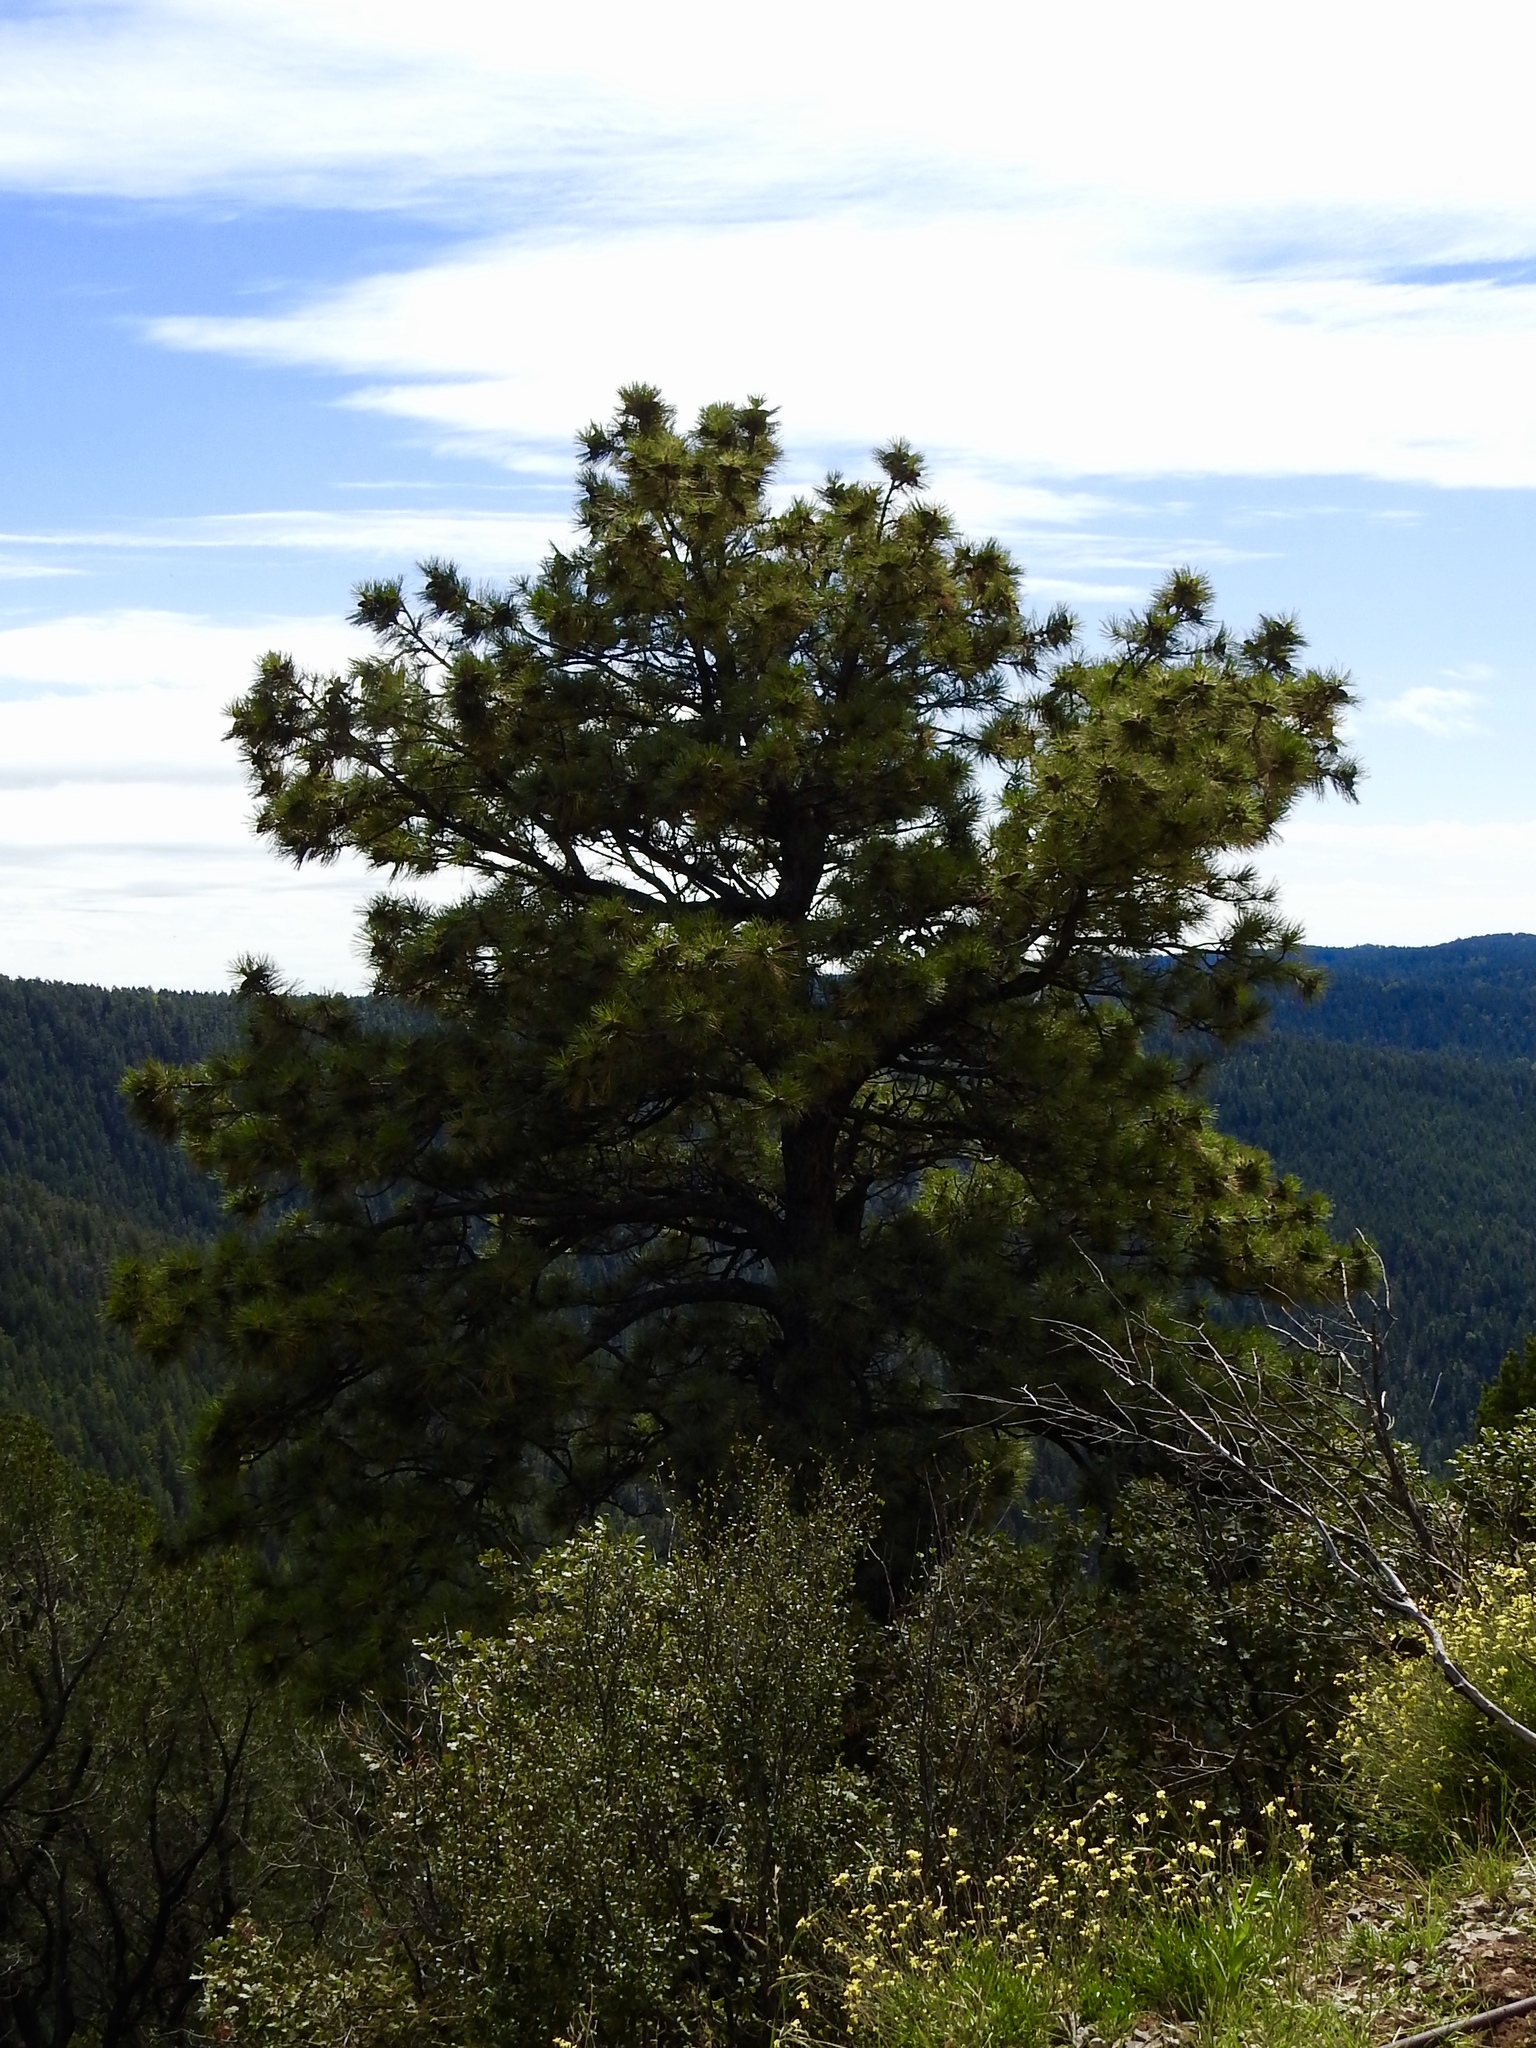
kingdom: Plantae
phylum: Tracheophyta
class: Pinopsida
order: Pinales
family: Pinaceae
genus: Pinus
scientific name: Pinus ponderosa
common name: Western yellow-pine
